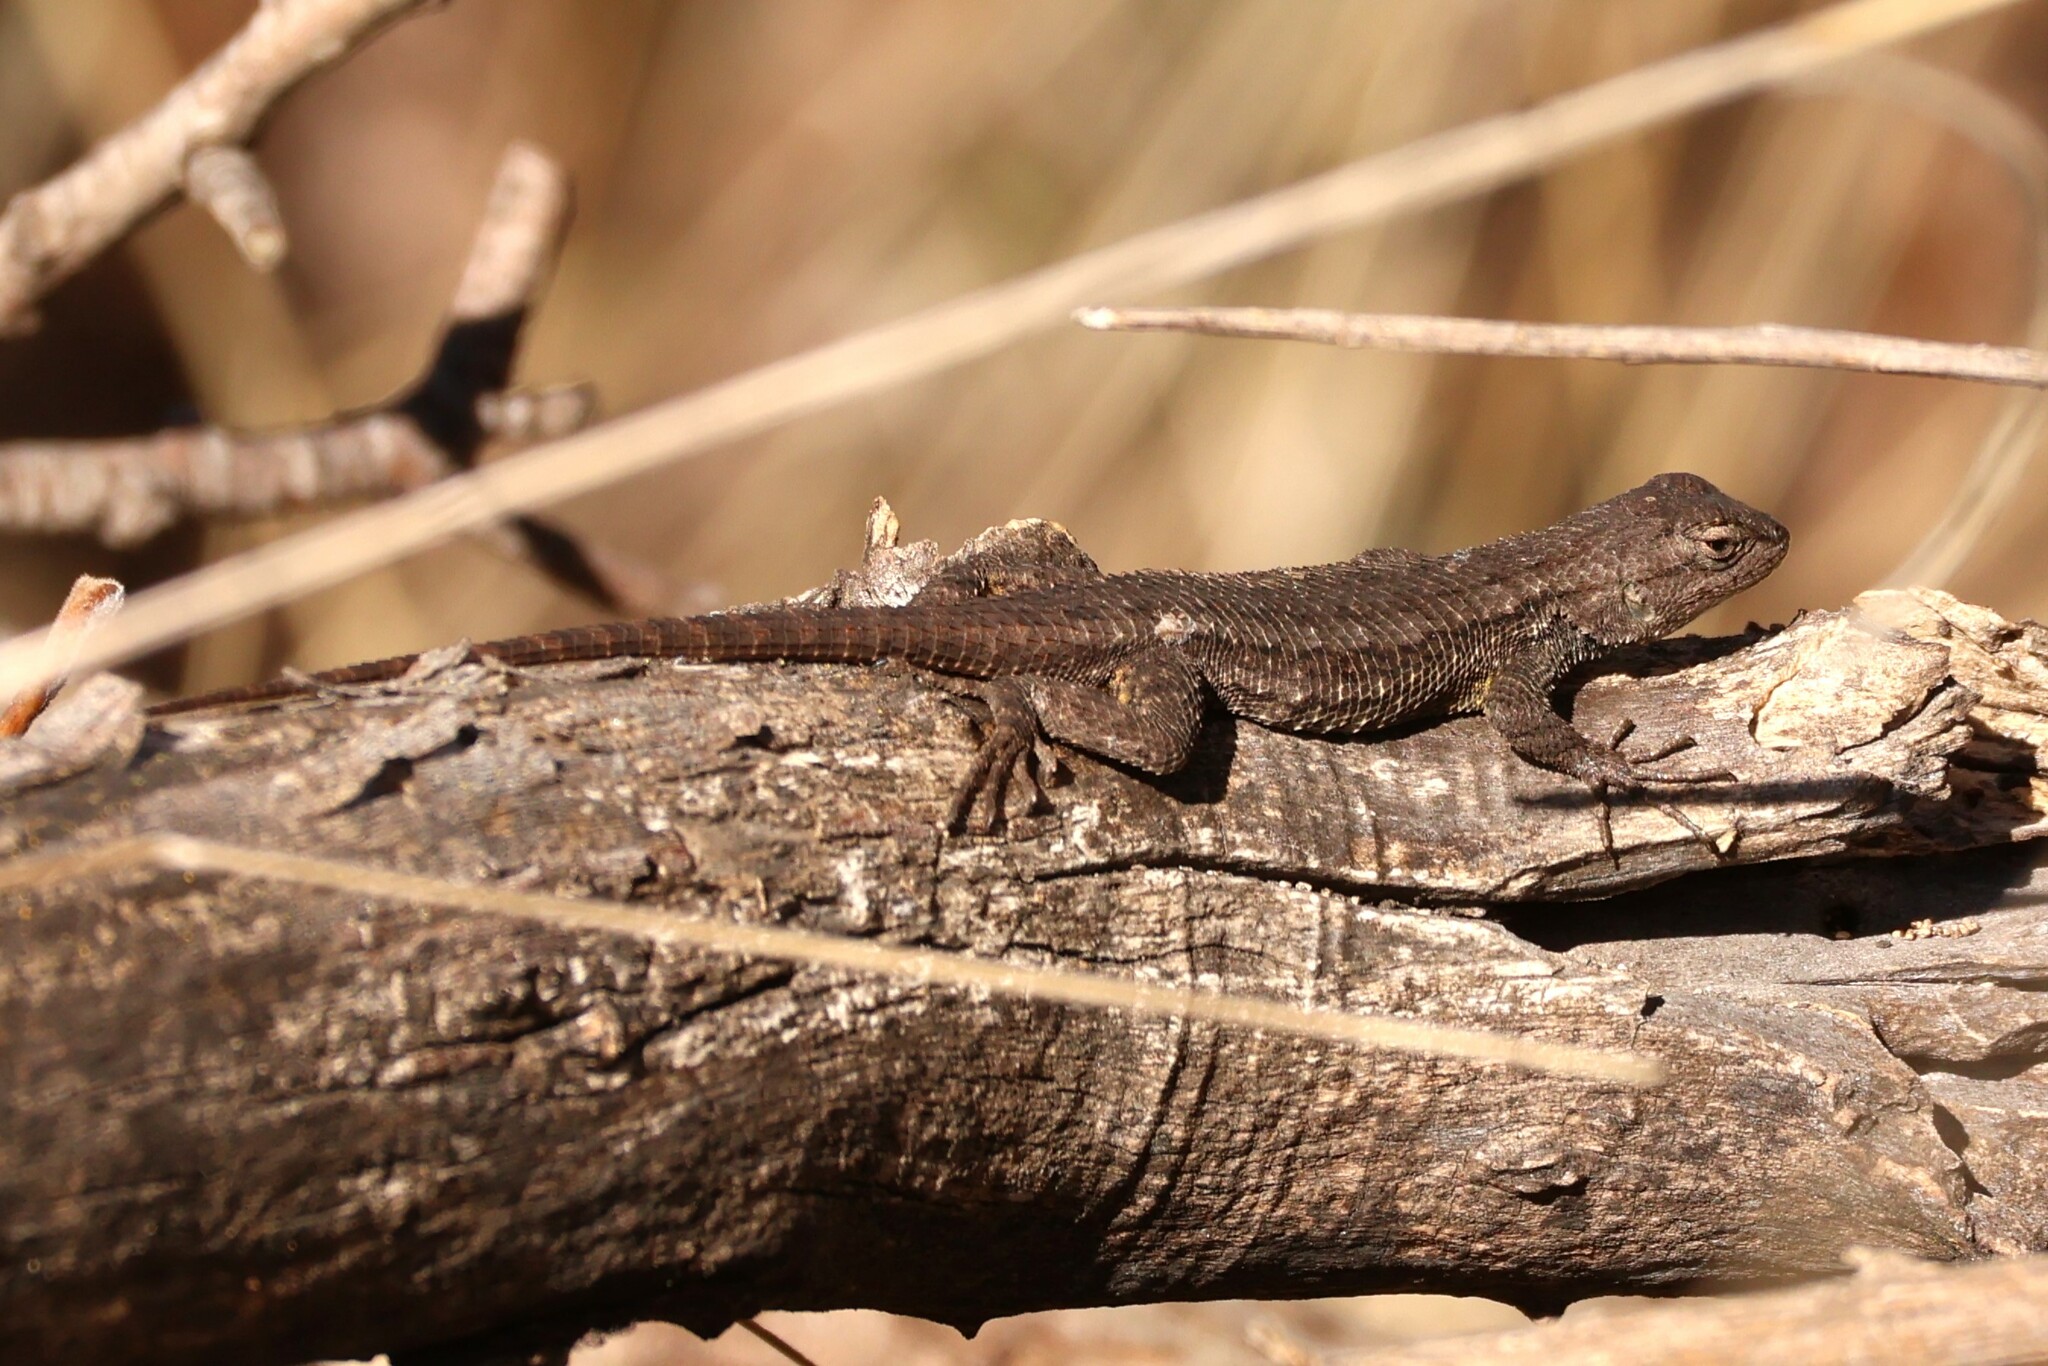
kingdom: Animalia
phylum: Chordata
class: Squamata
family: Phrynosomatidae
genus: Sceloporus
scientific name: Sceloporus occidentalis
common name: Western fence lizard
